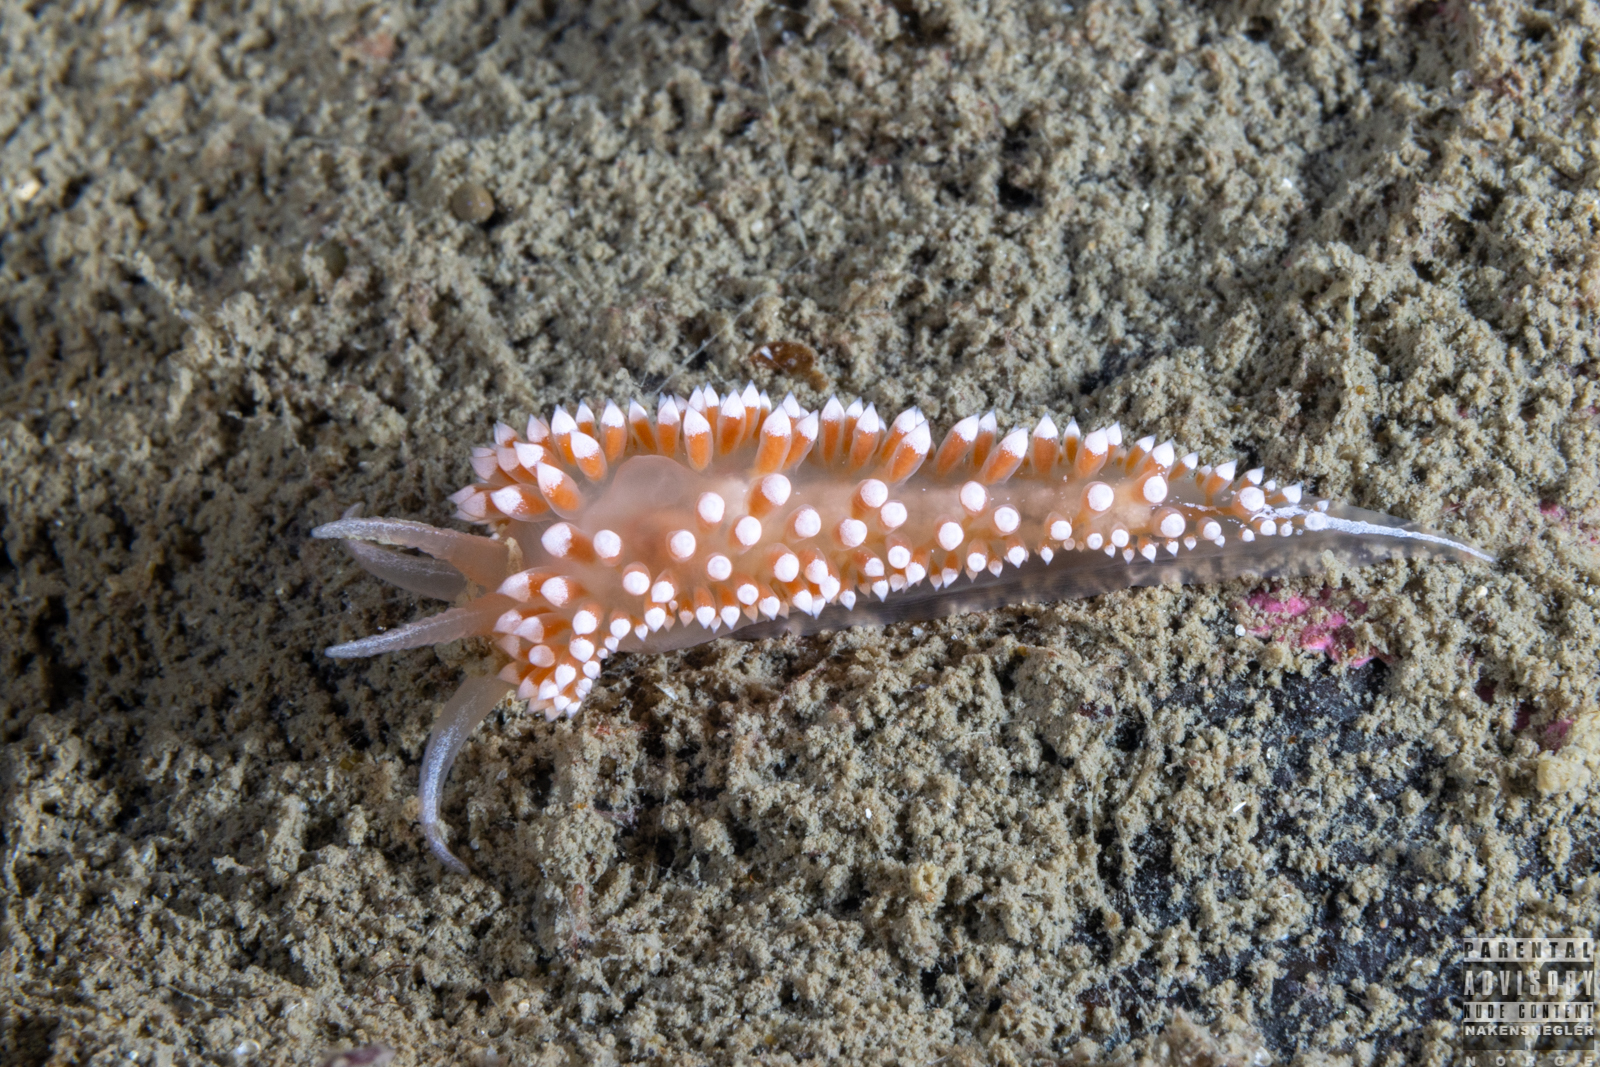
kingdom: Animalia
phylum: Mollusca
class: Gastropoda
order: Nudibranchia
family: Coryphellidae
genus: Coryphella
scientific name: Coryphella verrucosa
